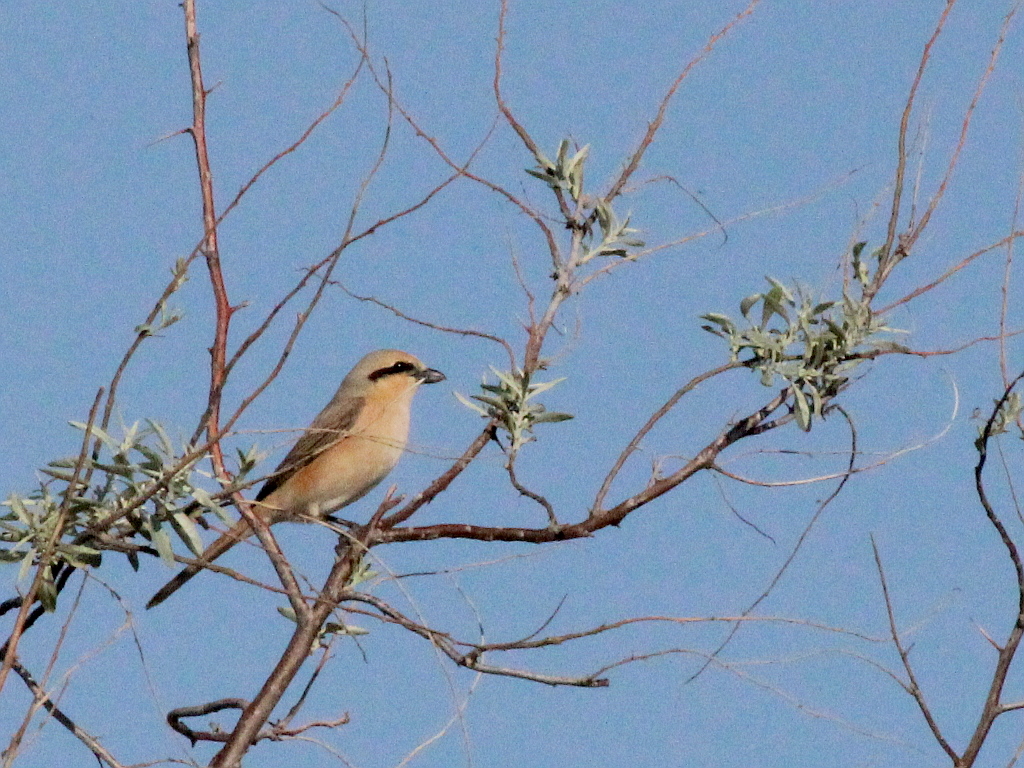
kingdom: Animalia
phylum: Chordata
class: Aves
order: Passeriformes
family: Laniidae
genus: Lanius
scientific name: Lanius isabellinus
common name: Isabelline shrike
